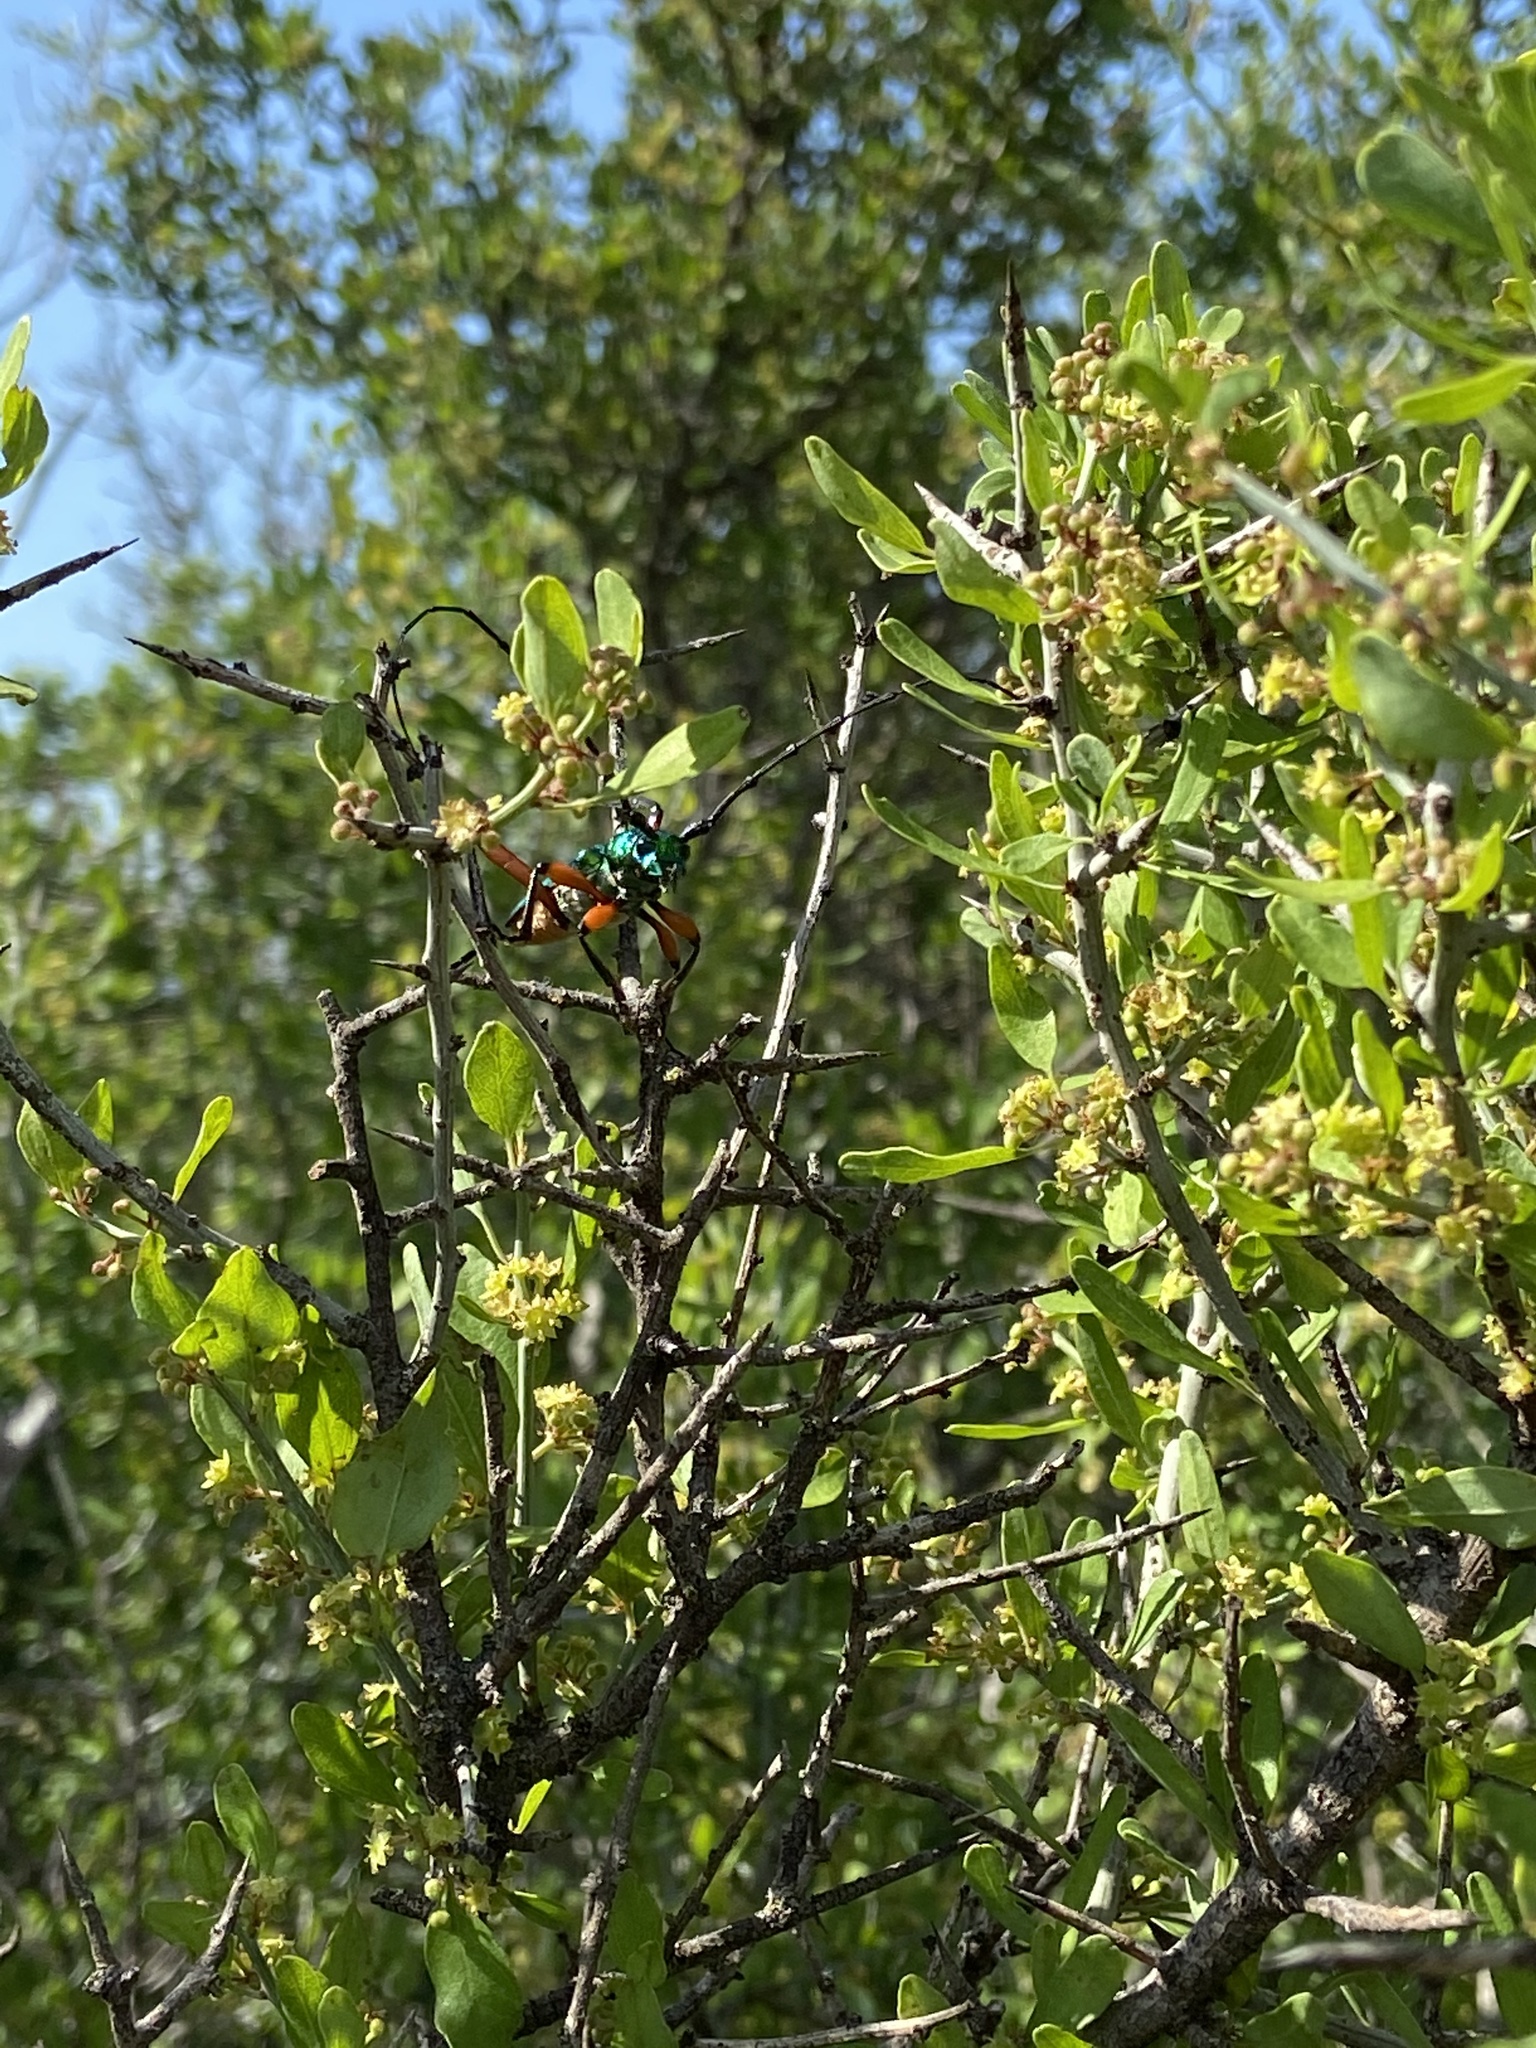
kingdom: Animalia
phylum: Arthropoda
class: Insecta
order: Coleoptera
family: Cerambycidae
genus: Plinthocoelium
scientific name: Plinthocoelium suaveolens
